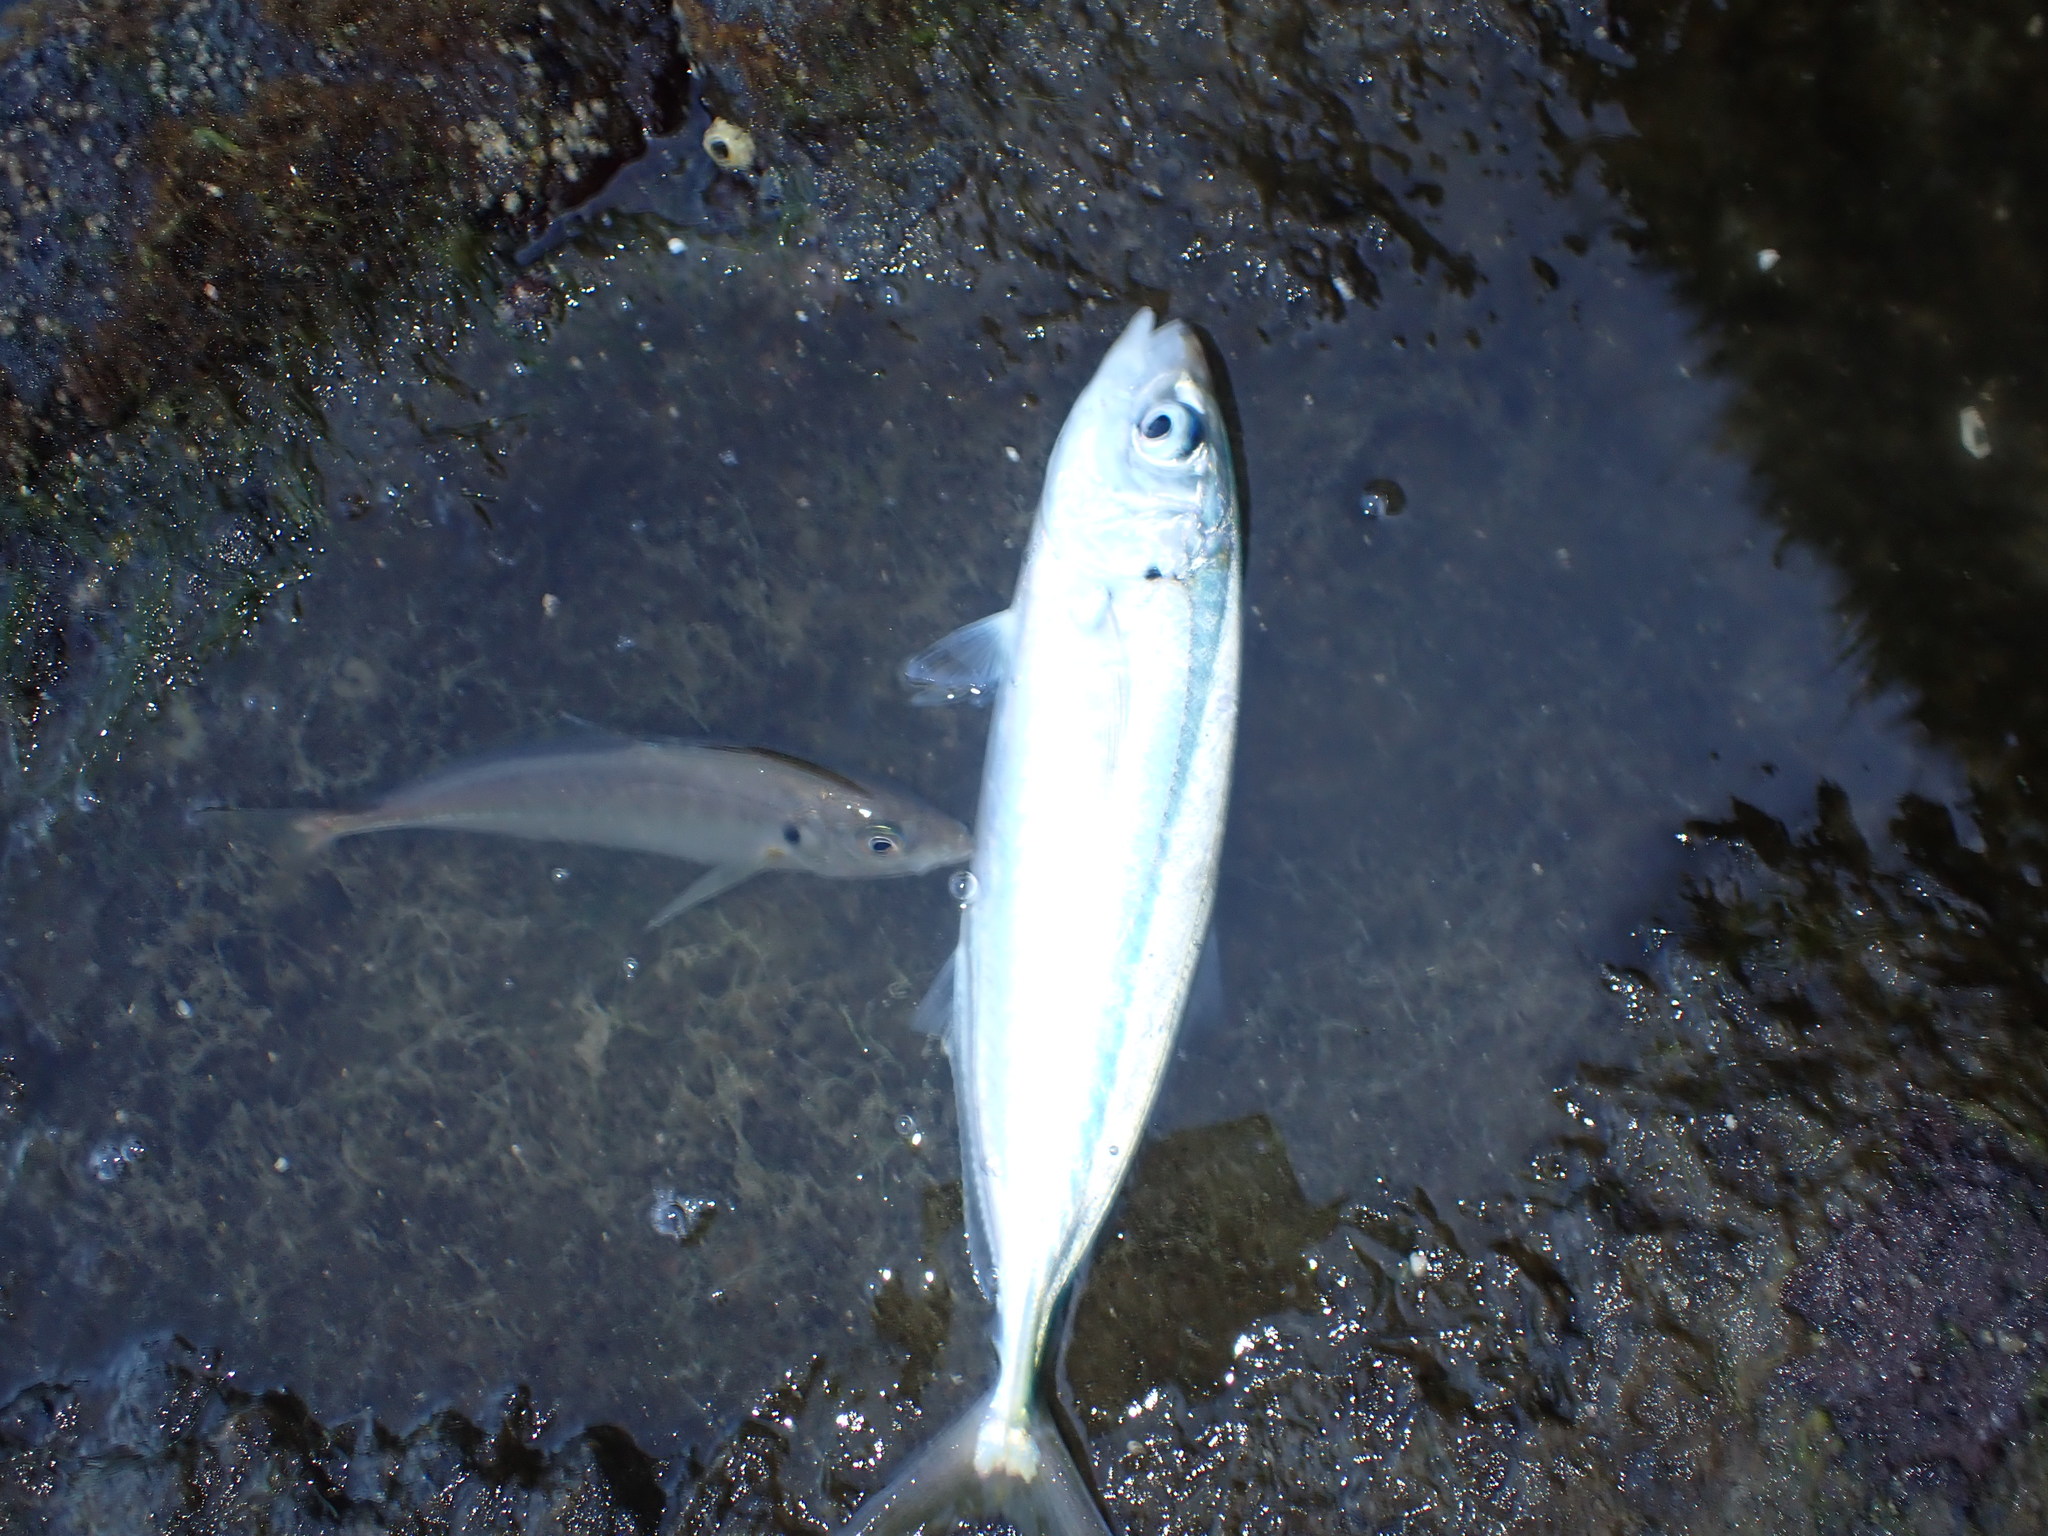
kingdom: Animalia
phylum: Chordata
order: Perciformes
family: Carangidae
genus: Trachurus
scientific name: Trachurus novaezelandiae
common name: Yellowtail horse mackerel
